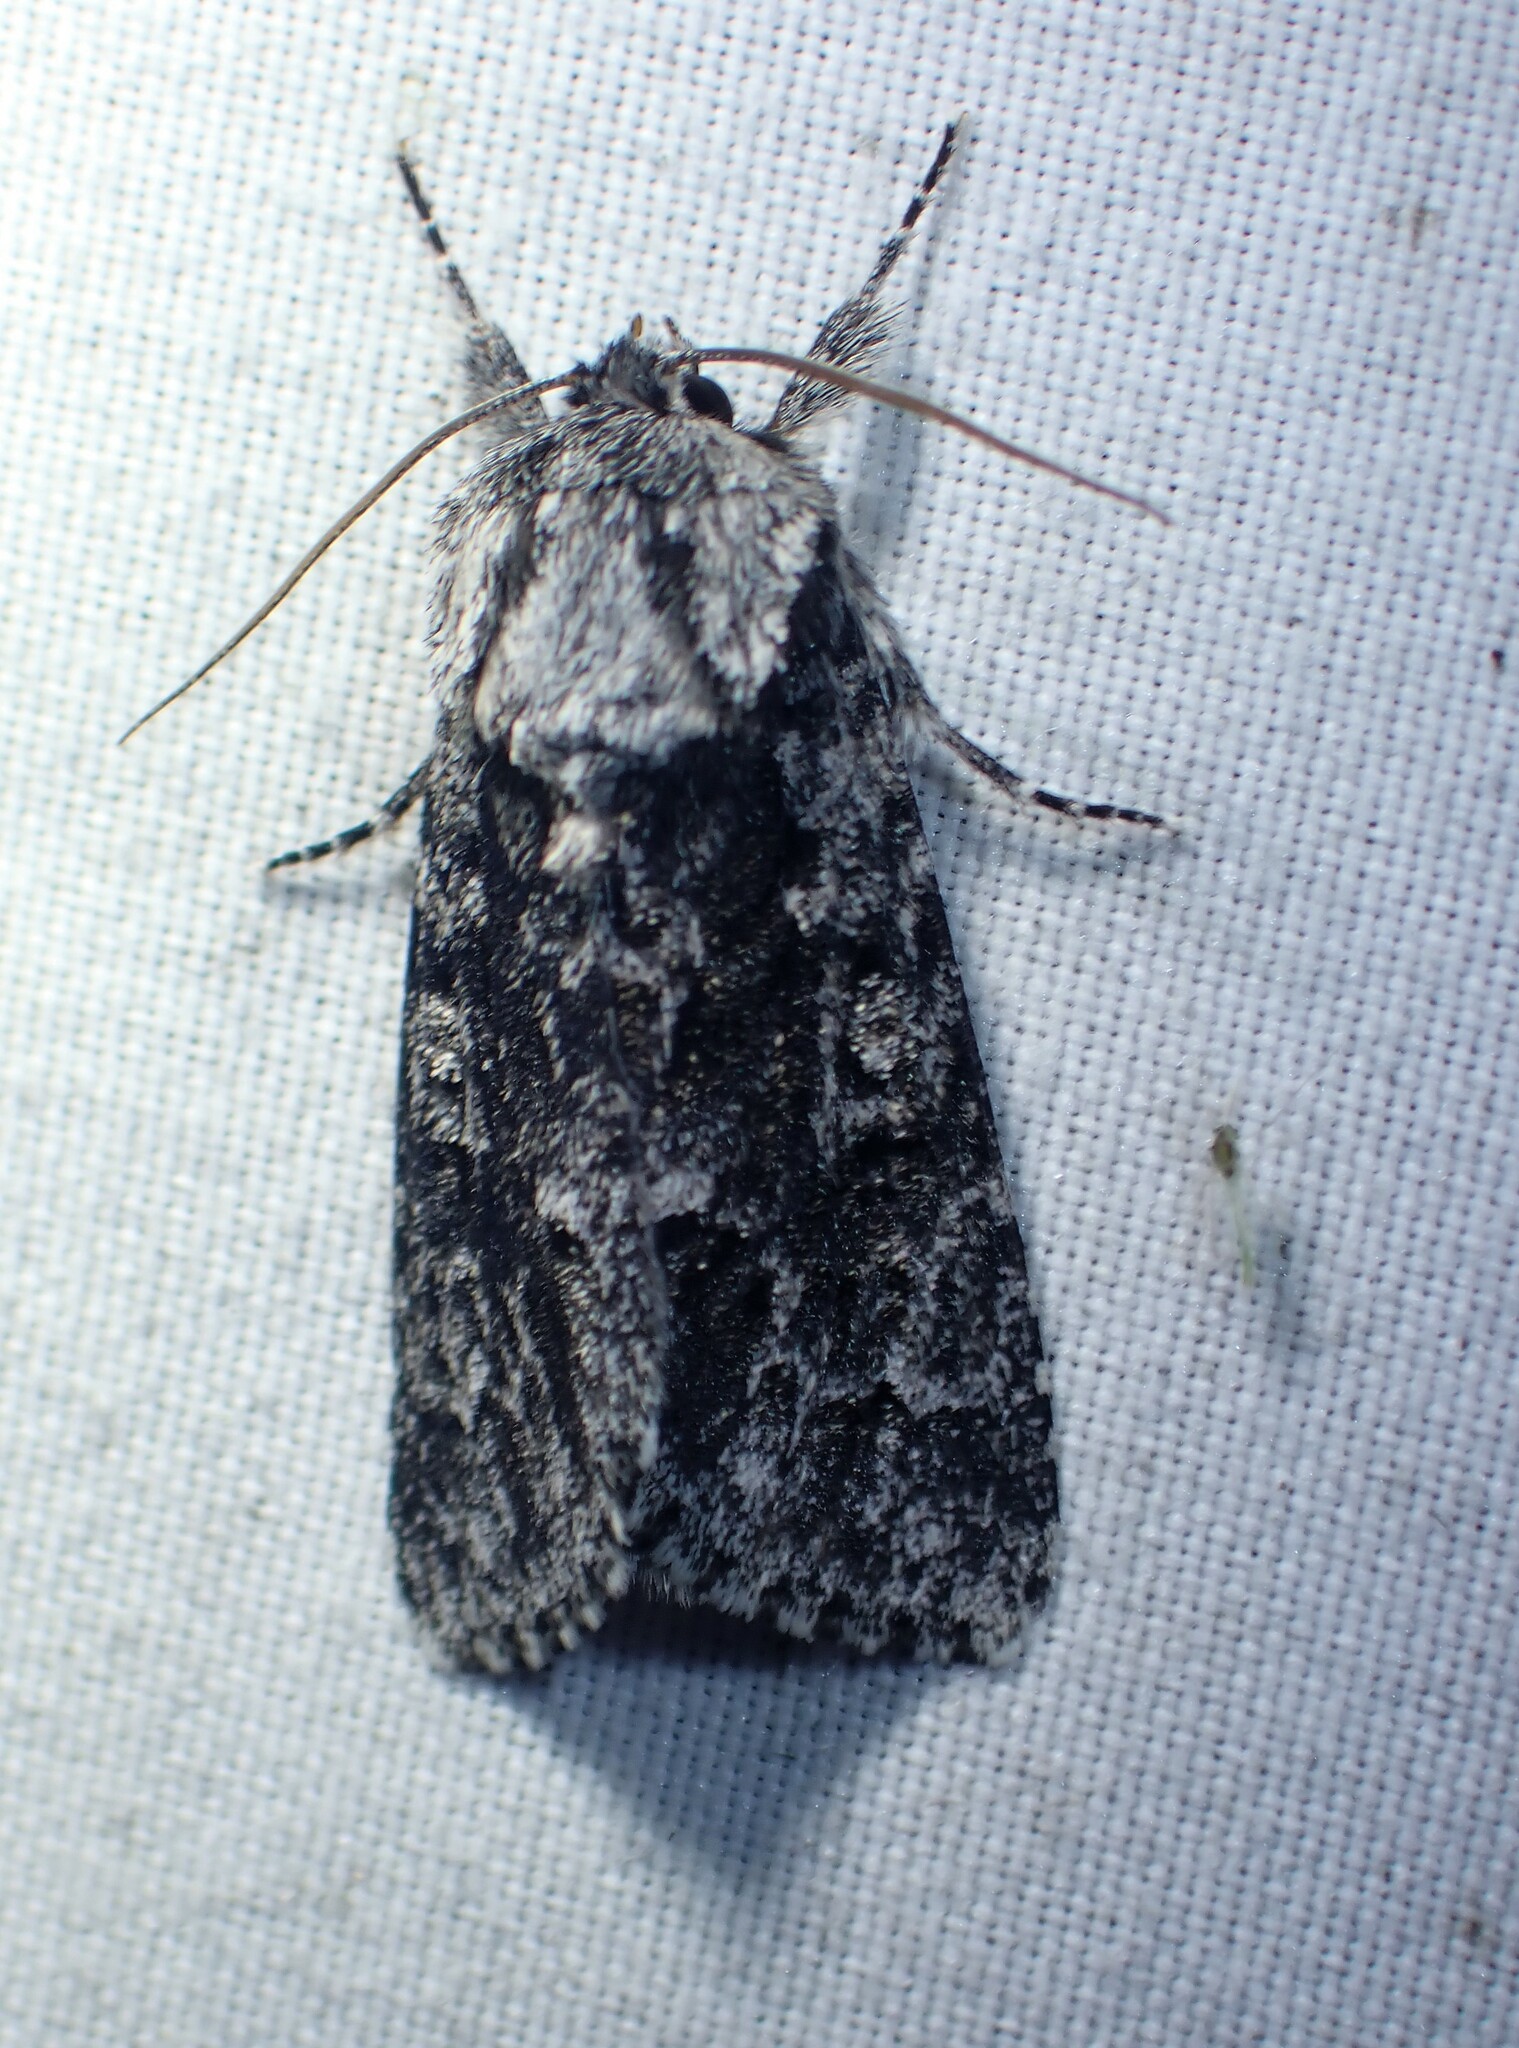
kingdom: Animalia
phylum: Arthropoda
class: Insecta
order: Lepidoptera
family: Noctuidae
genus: Acronicta
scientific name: Acronicta impressa
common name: Impressed dagger
